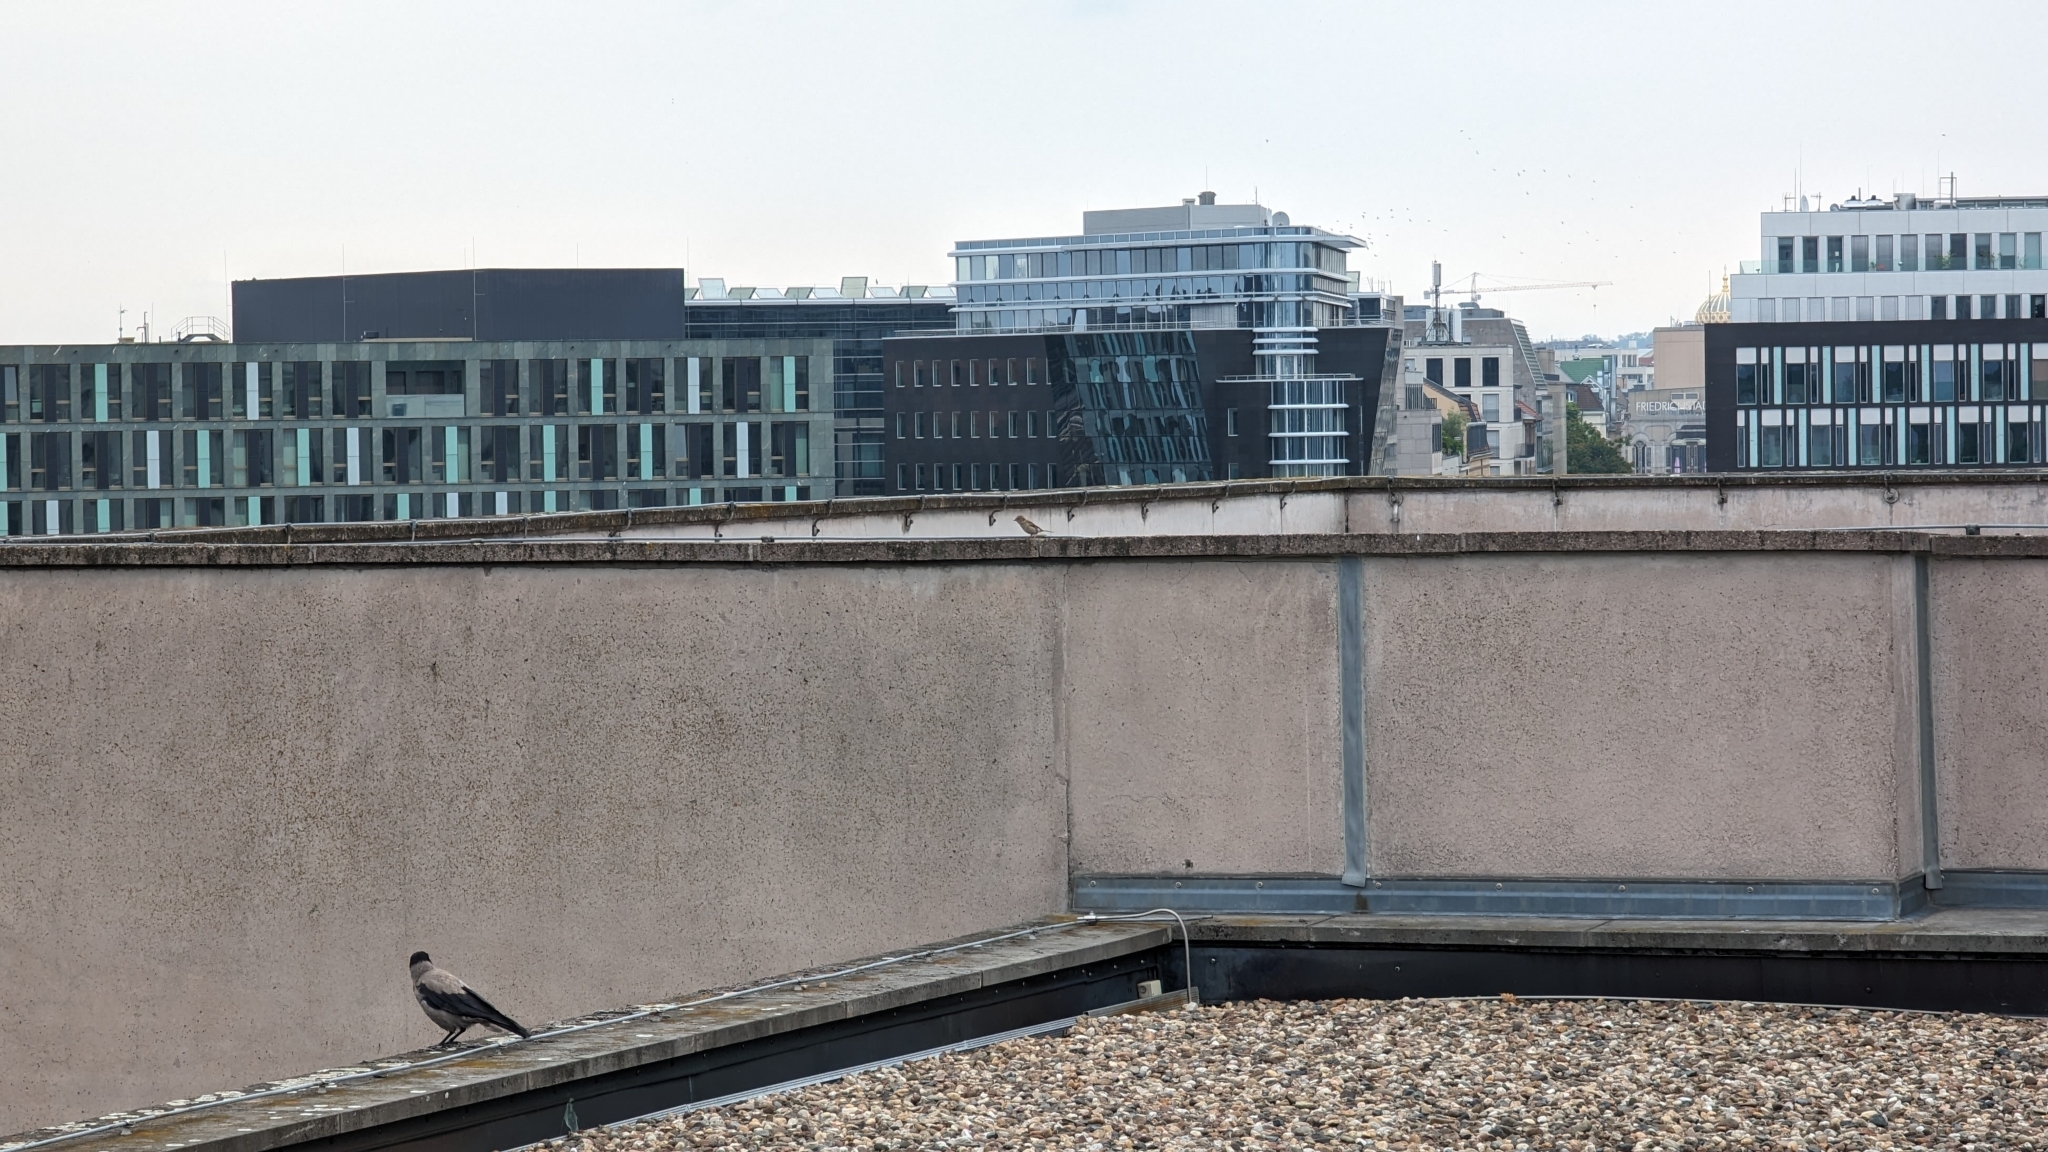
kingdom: Animalia
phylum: Chordata
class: Aves
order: Passeriformes
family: Passeridae
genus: Passer
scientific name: Passer domesticus
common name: House sparrow
